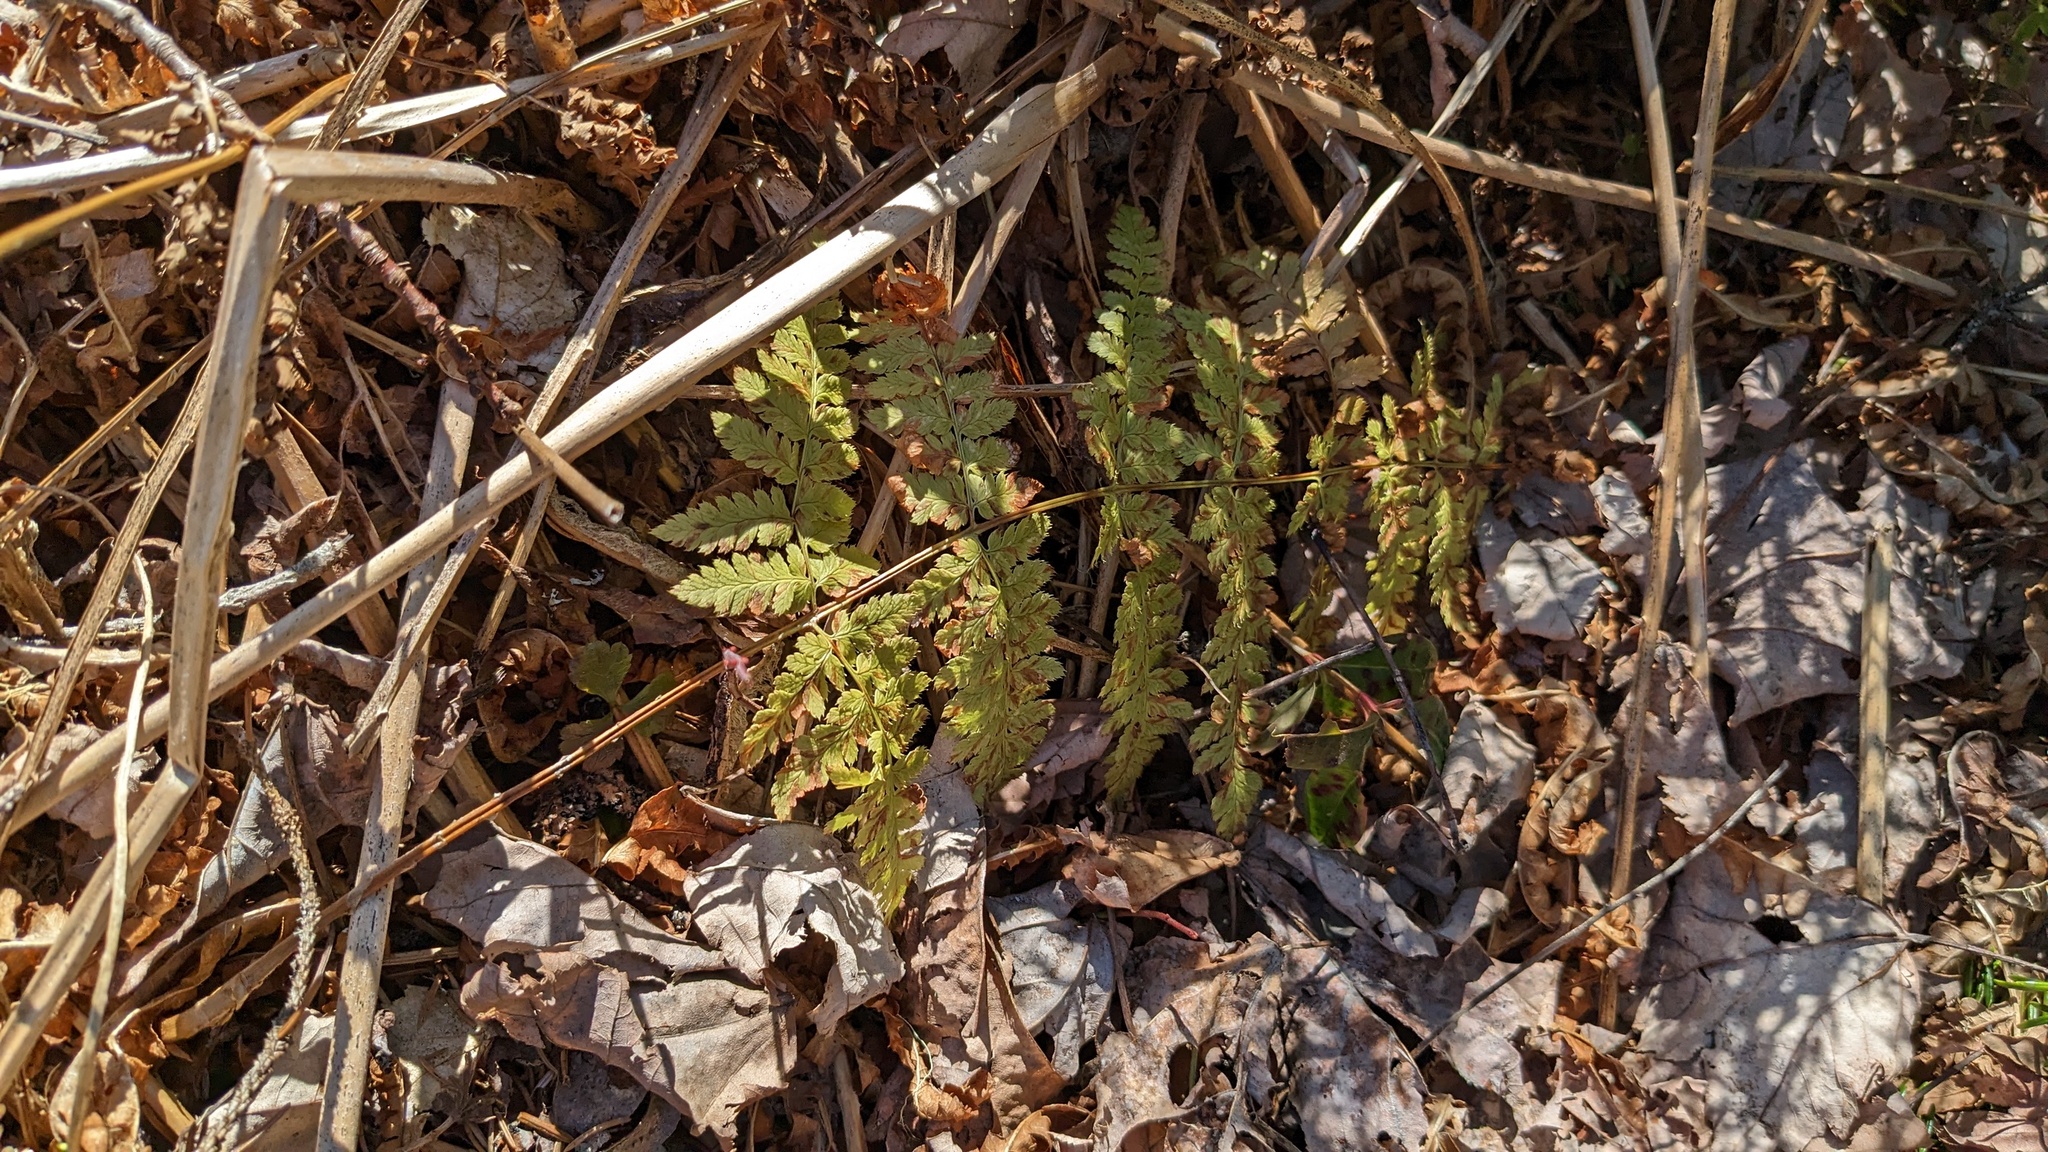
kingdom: Plantae
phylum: Tracheophyta
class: Polypodiopsida
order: Polypodiales
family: Dryopteridaceae
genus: Dryopteris
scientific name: Dryopteris intermedia
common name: Evergreen wood fern
